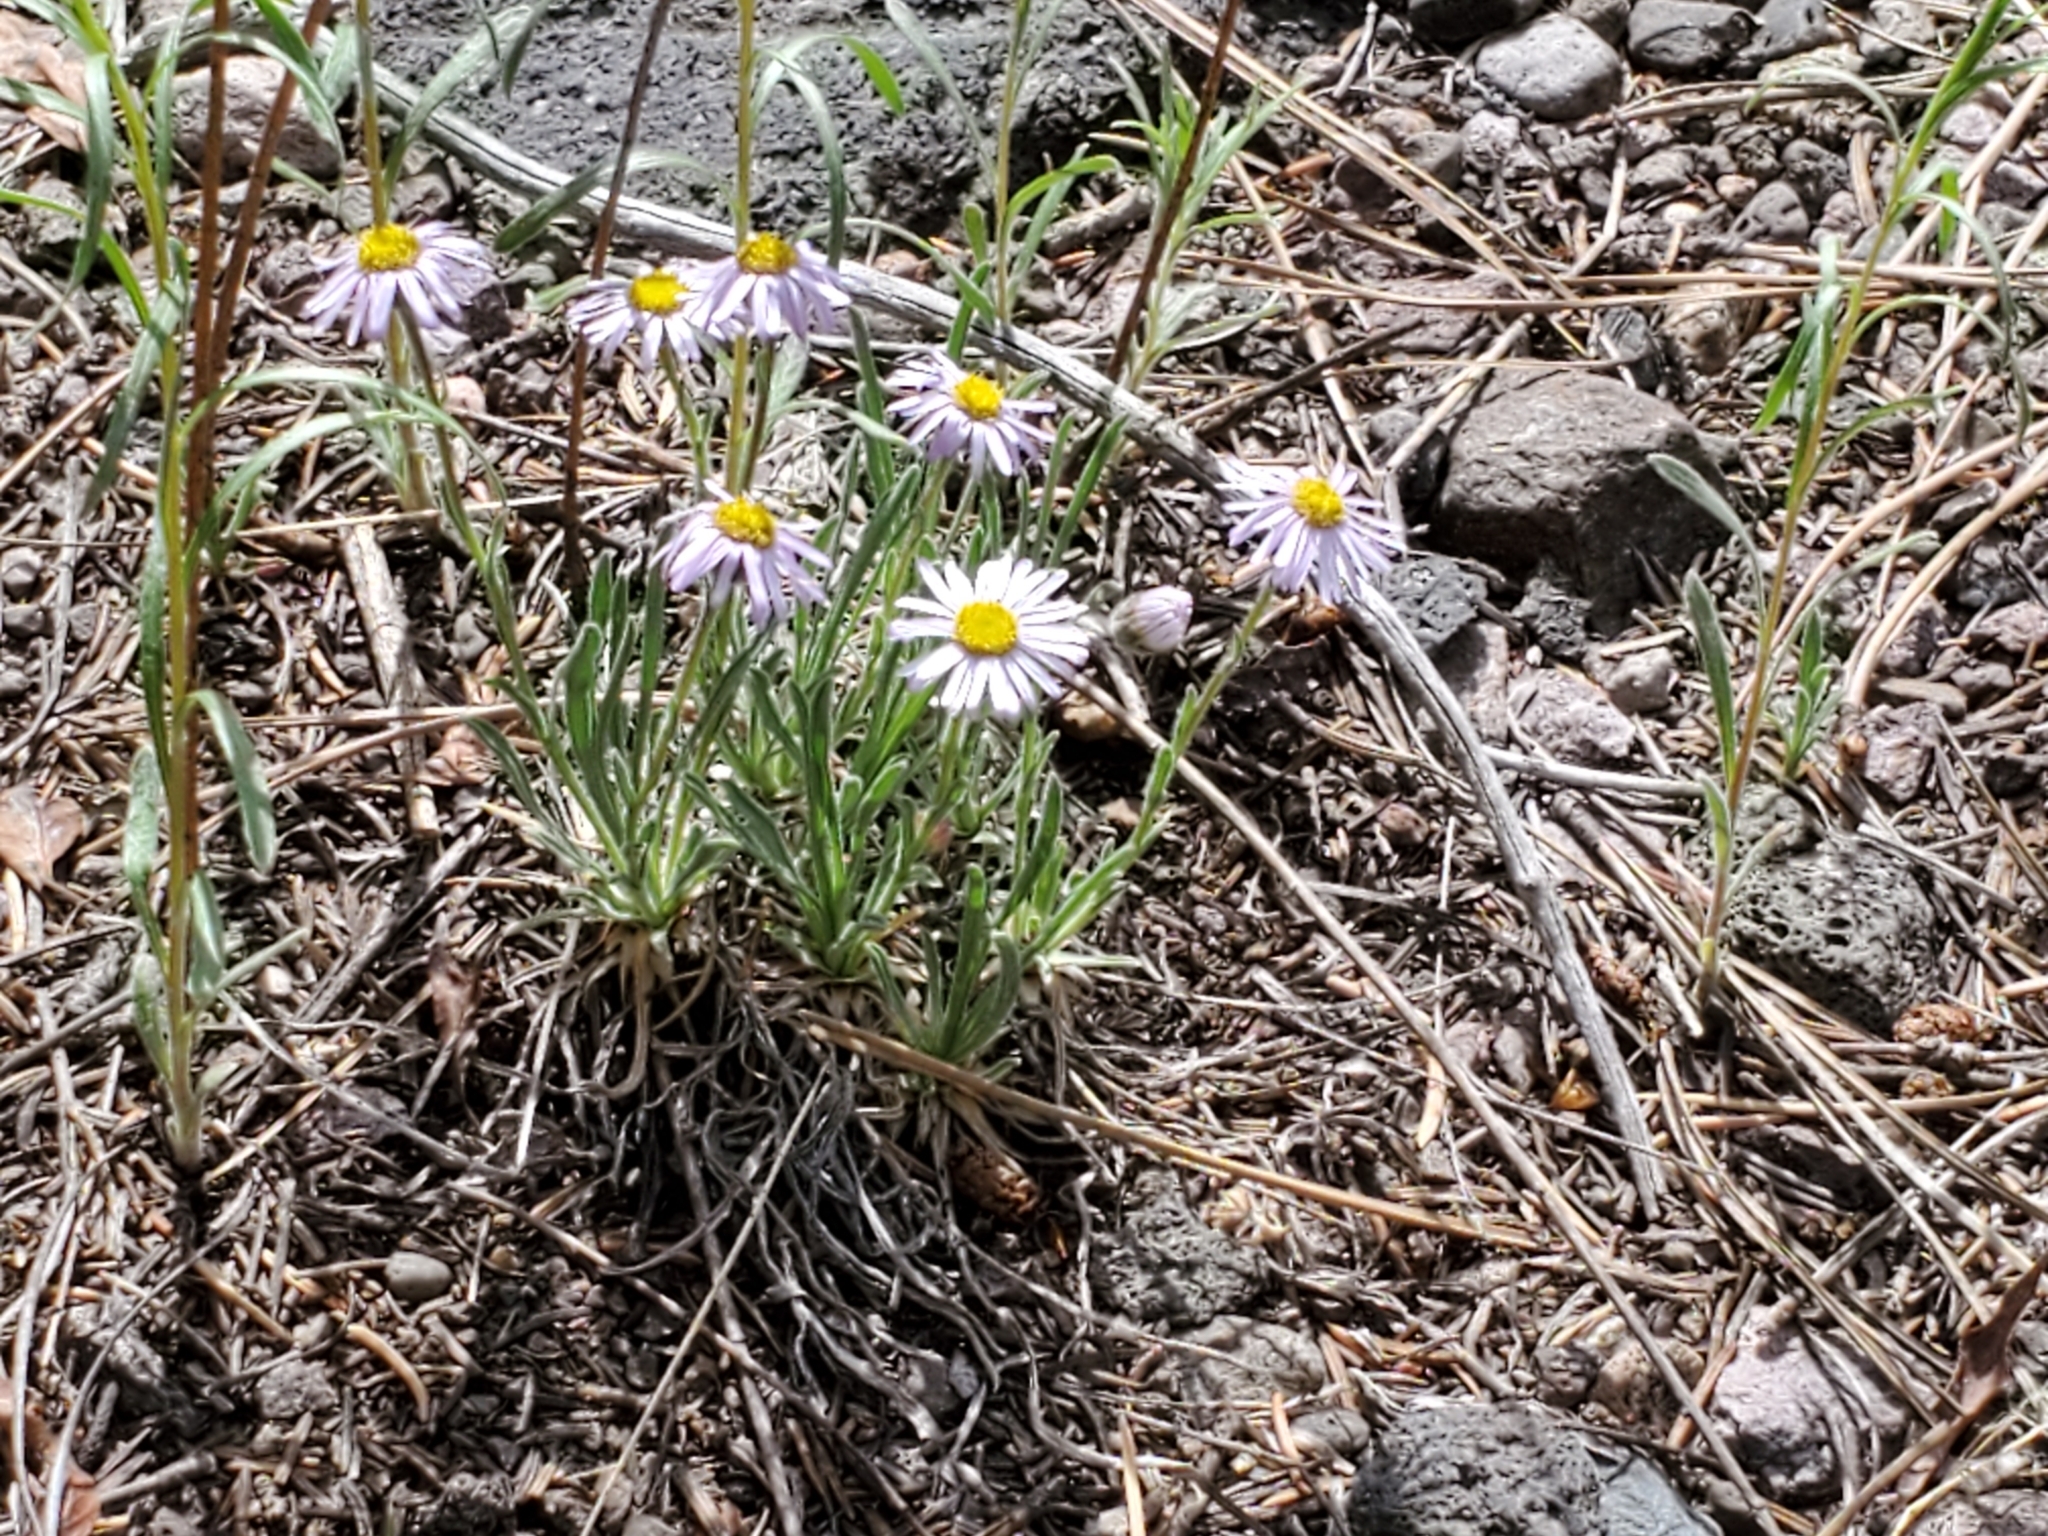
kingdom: Plantae
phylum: Tracheophyta
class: Magnoliopsida
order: Asterales
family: Asteraceae
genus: Erigeron
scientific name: Erigeron vetensis
